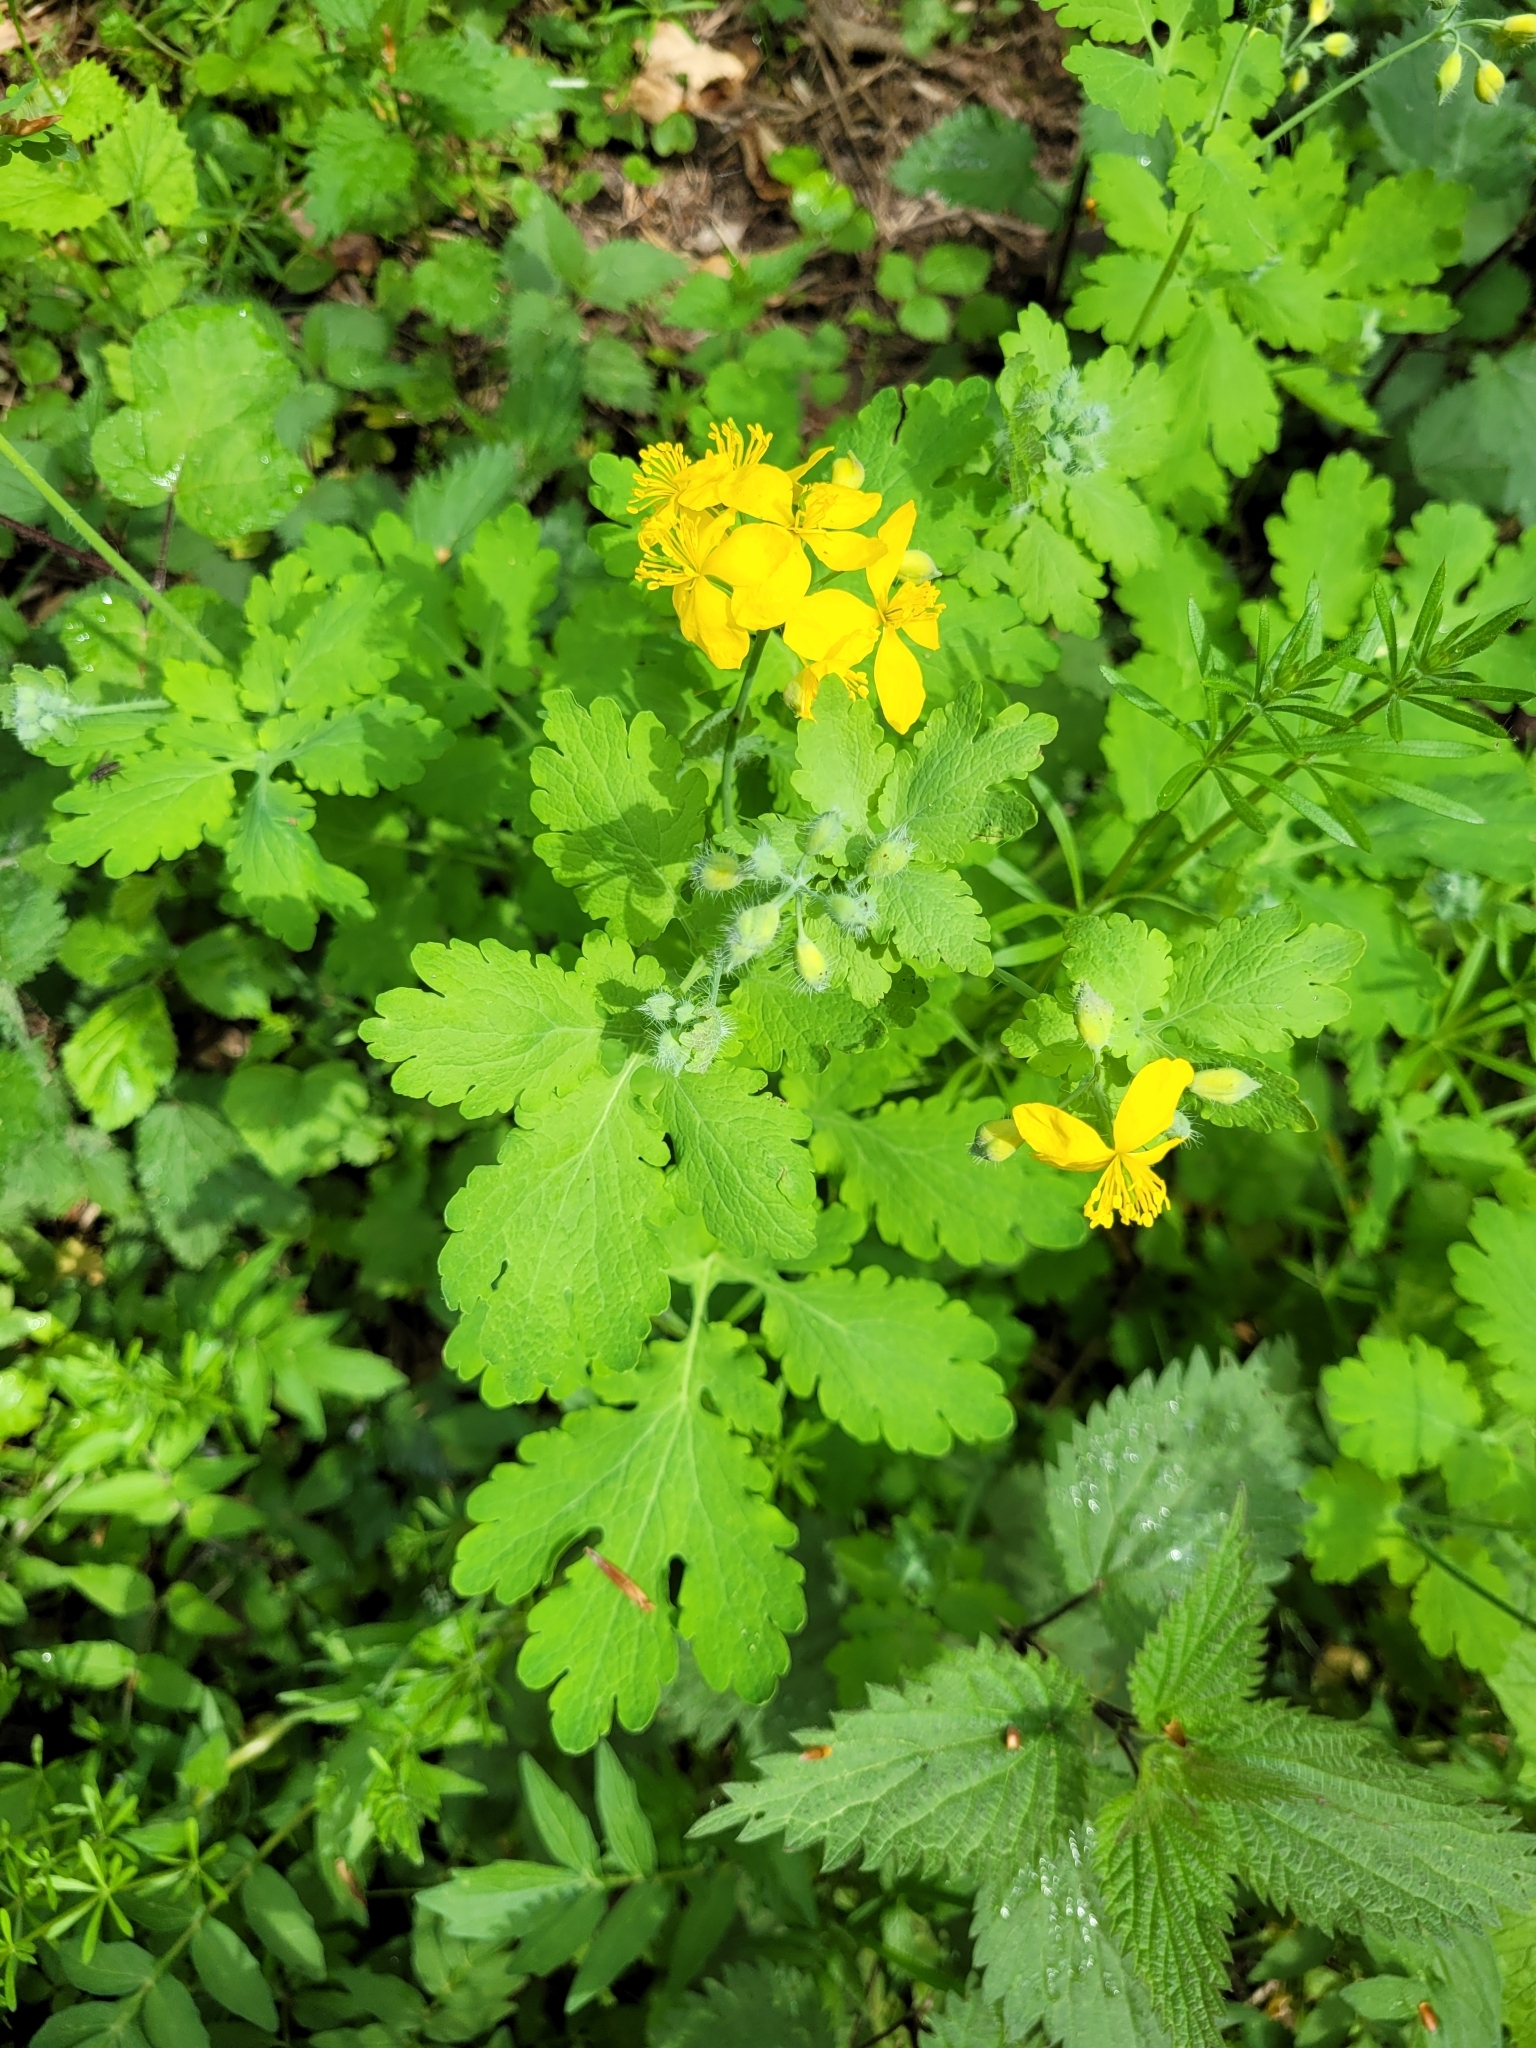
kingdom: Plantae
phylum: Tracheophyta
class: Magnoliopsida
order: Ranunculales
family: Papaveraceae
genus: Chelidonium
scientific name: Chelidonium majus
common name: Greater celandine
